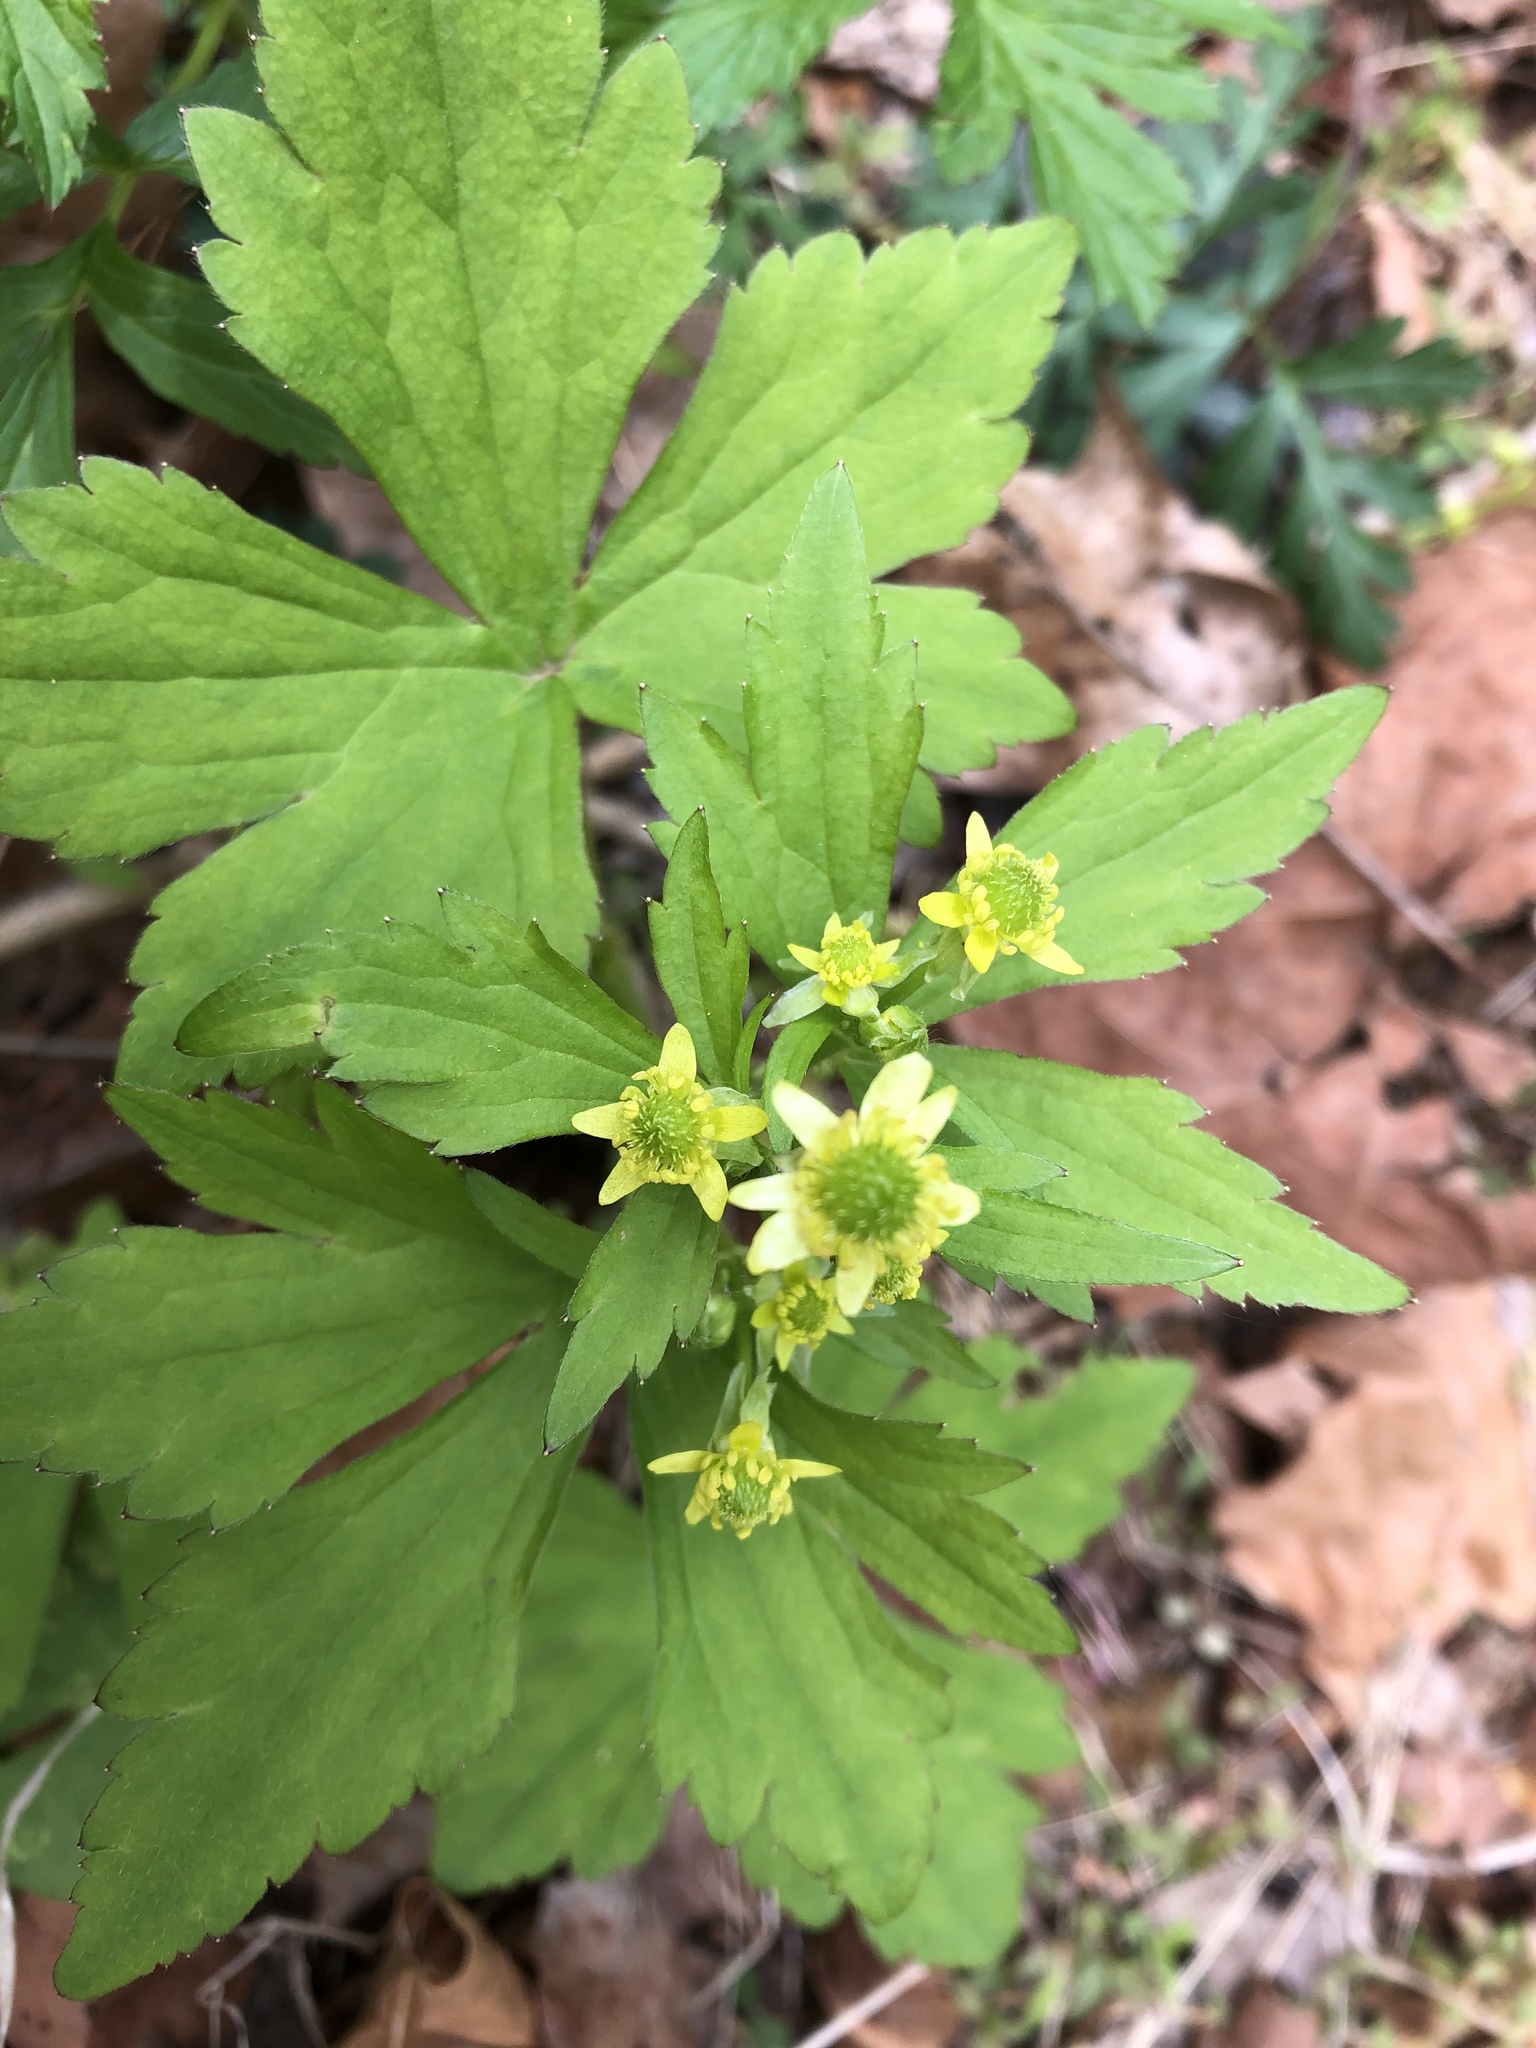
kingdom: Plantae
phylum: Tracheophyta
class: Magnoliopsida
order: Ranunculales
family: Ranunculaceae
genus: Ranunculus
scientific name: Ranunculus recurvatus
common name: Blisterwort
